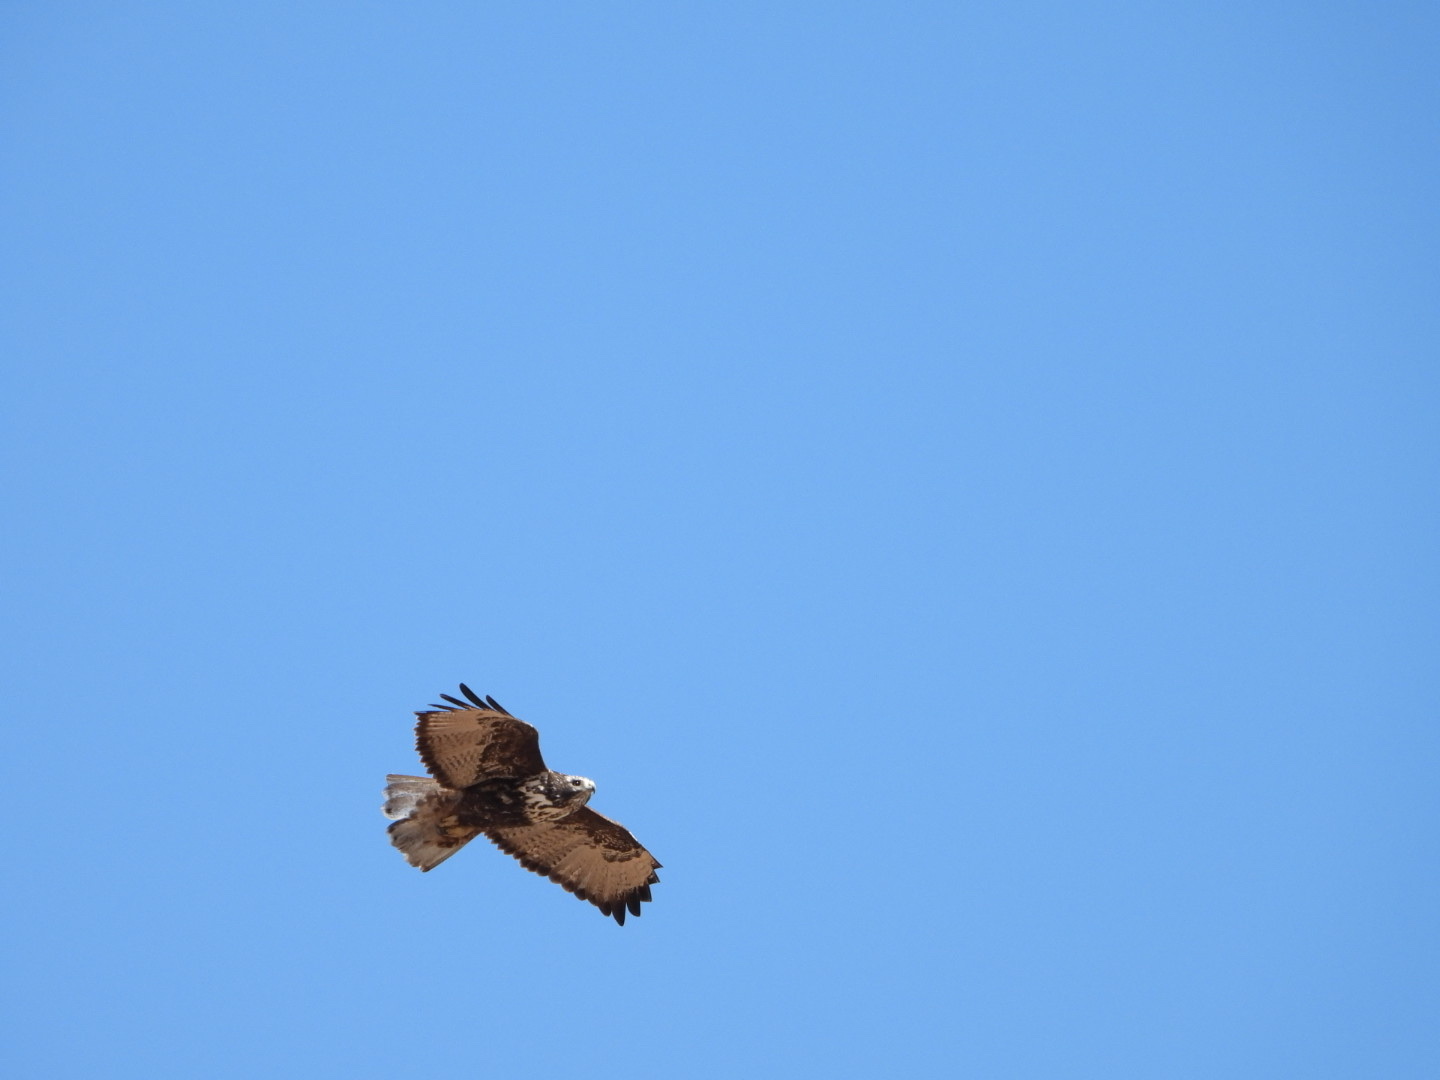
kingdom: Animalia
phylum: Chordata
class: Aves
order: Accipitriformes
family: Accipitridae
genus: Buteo
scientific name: Buteo jamaicensis
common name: Red-tailed hawk
